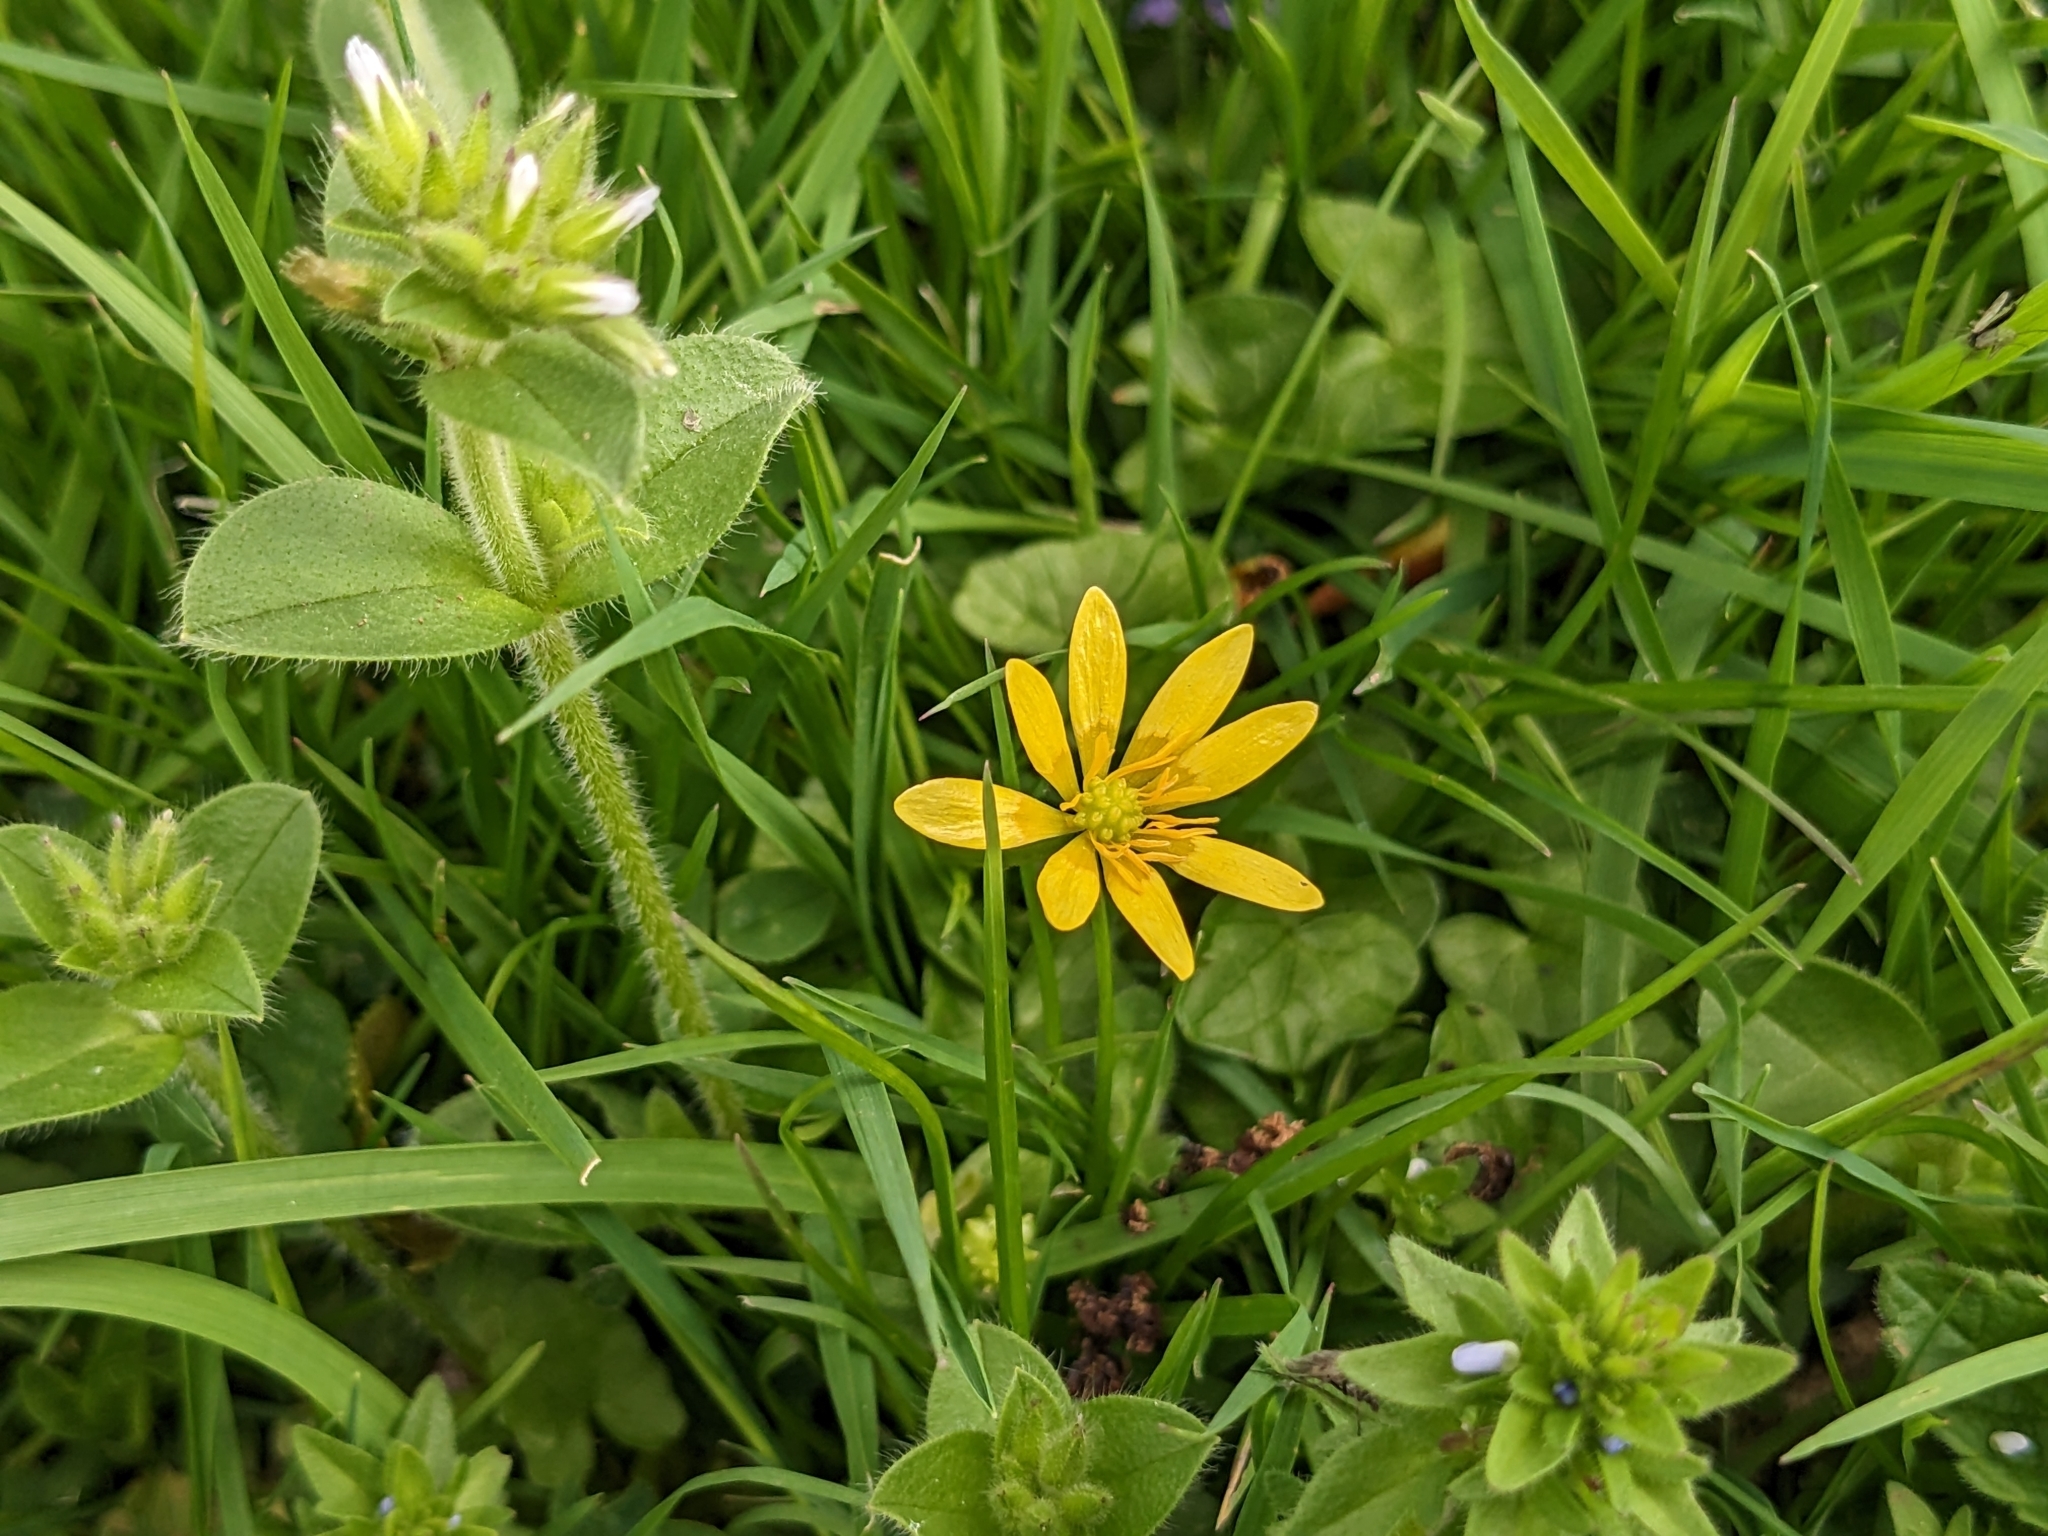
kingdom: Plantae
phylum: Tracheophyta
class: Magnoliopsida
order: Ranunculales
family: Ranunculaceae
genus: Ficaria
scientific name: Ficaria verna
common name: Lesser celandine
